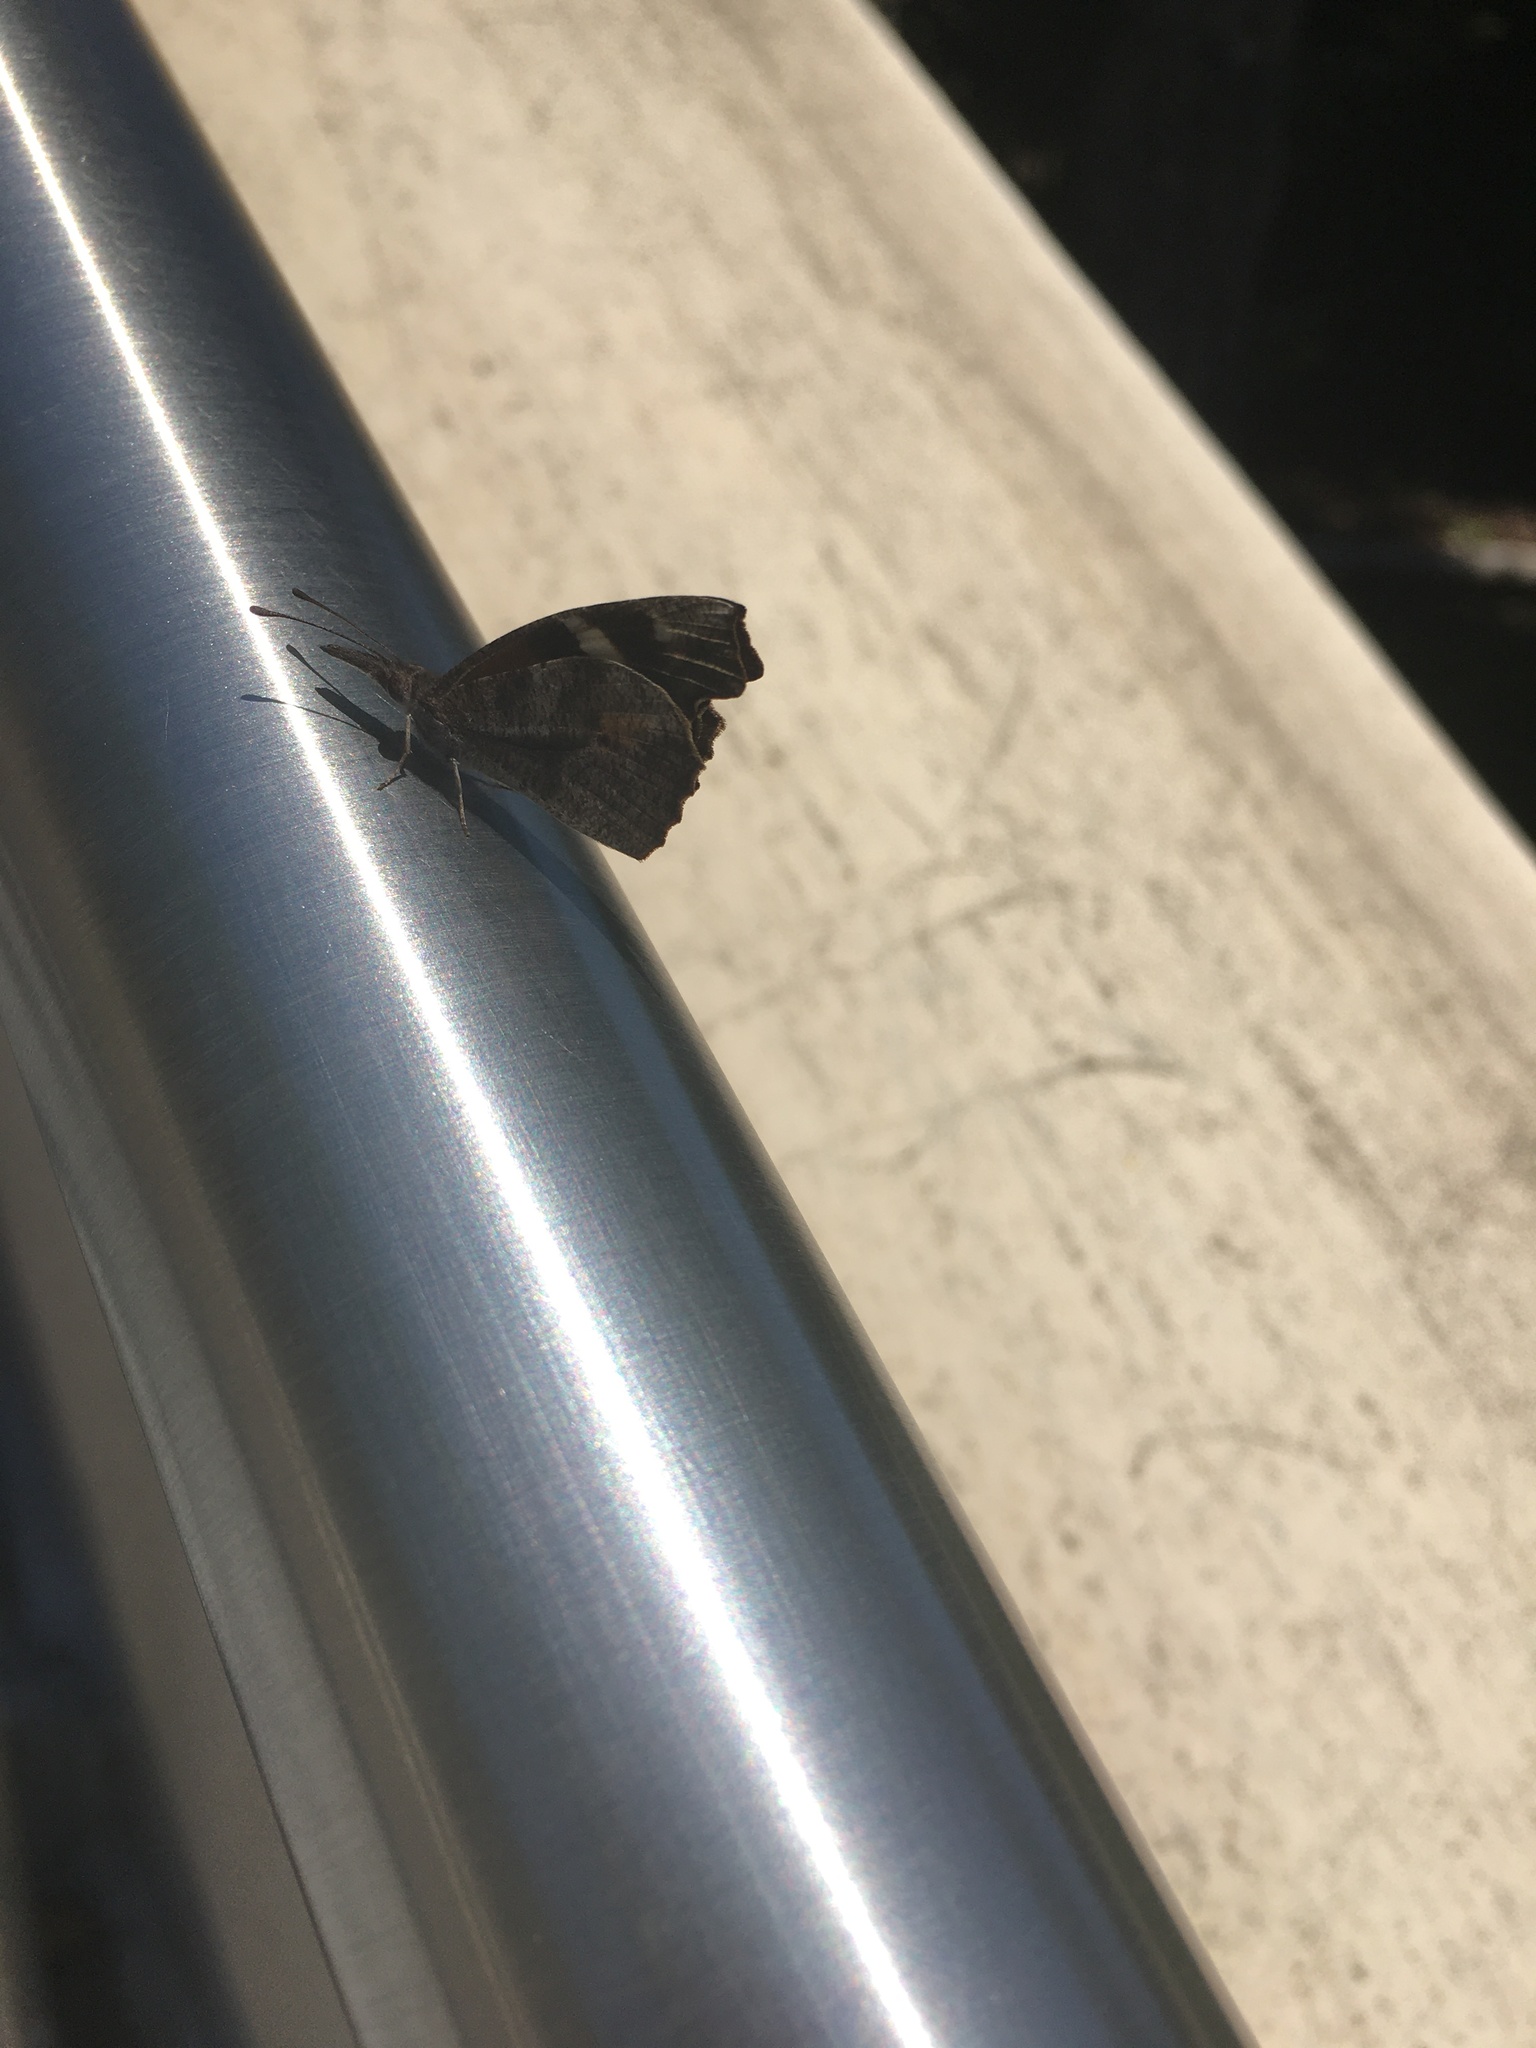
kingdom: Animalia
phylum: Arthropoda
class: Insecta
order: Lepidoptera
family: Nymphalidae
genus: Libytheana
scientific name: Libytheana carinenta
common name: American snout
